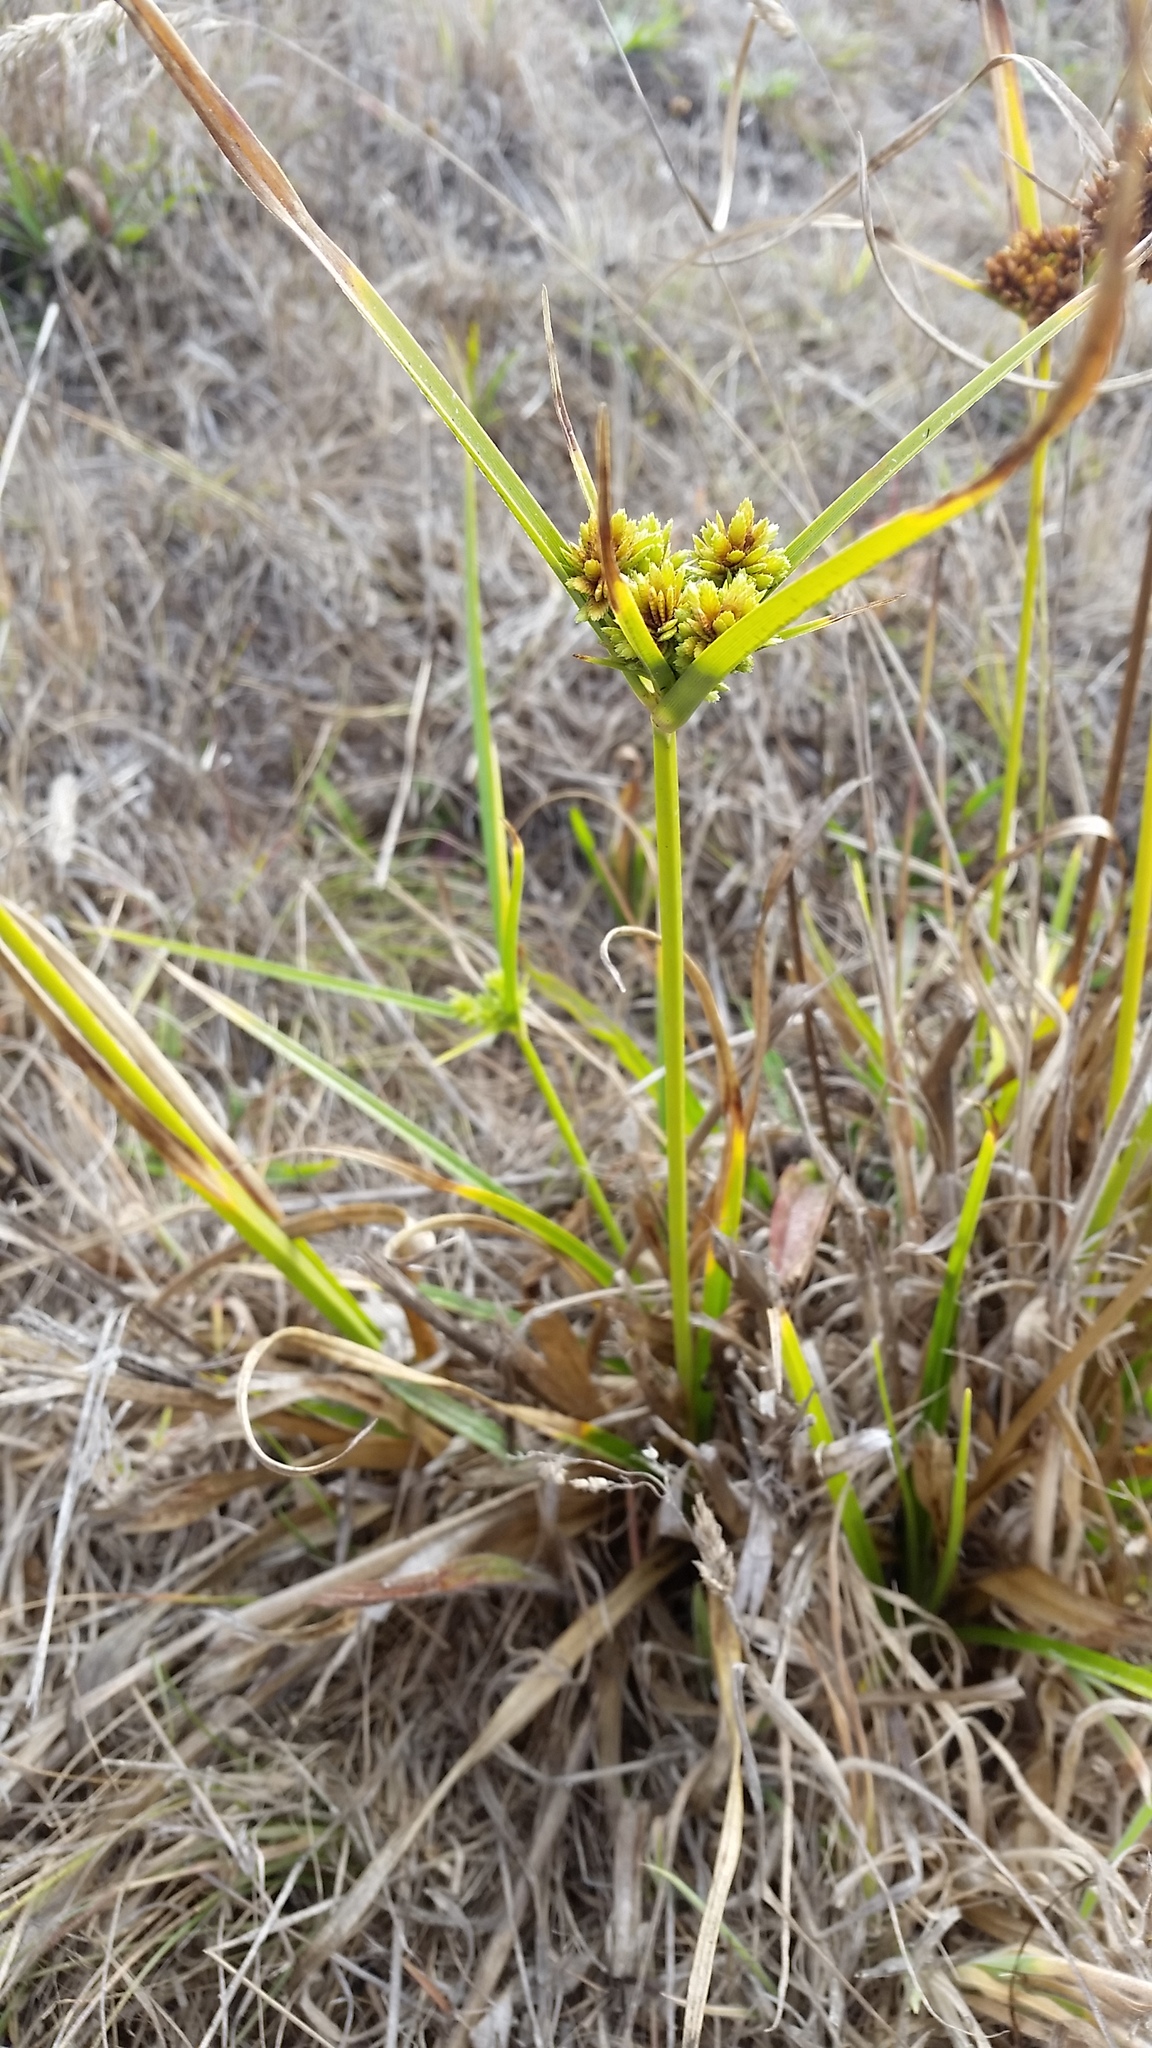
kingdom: Plantae
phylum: Tracheophyta
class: Liliopsida
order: Poales
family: Cyperaceae
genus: Cyperus
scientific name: Cyperus eragrostis
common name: Tall flatsedge
